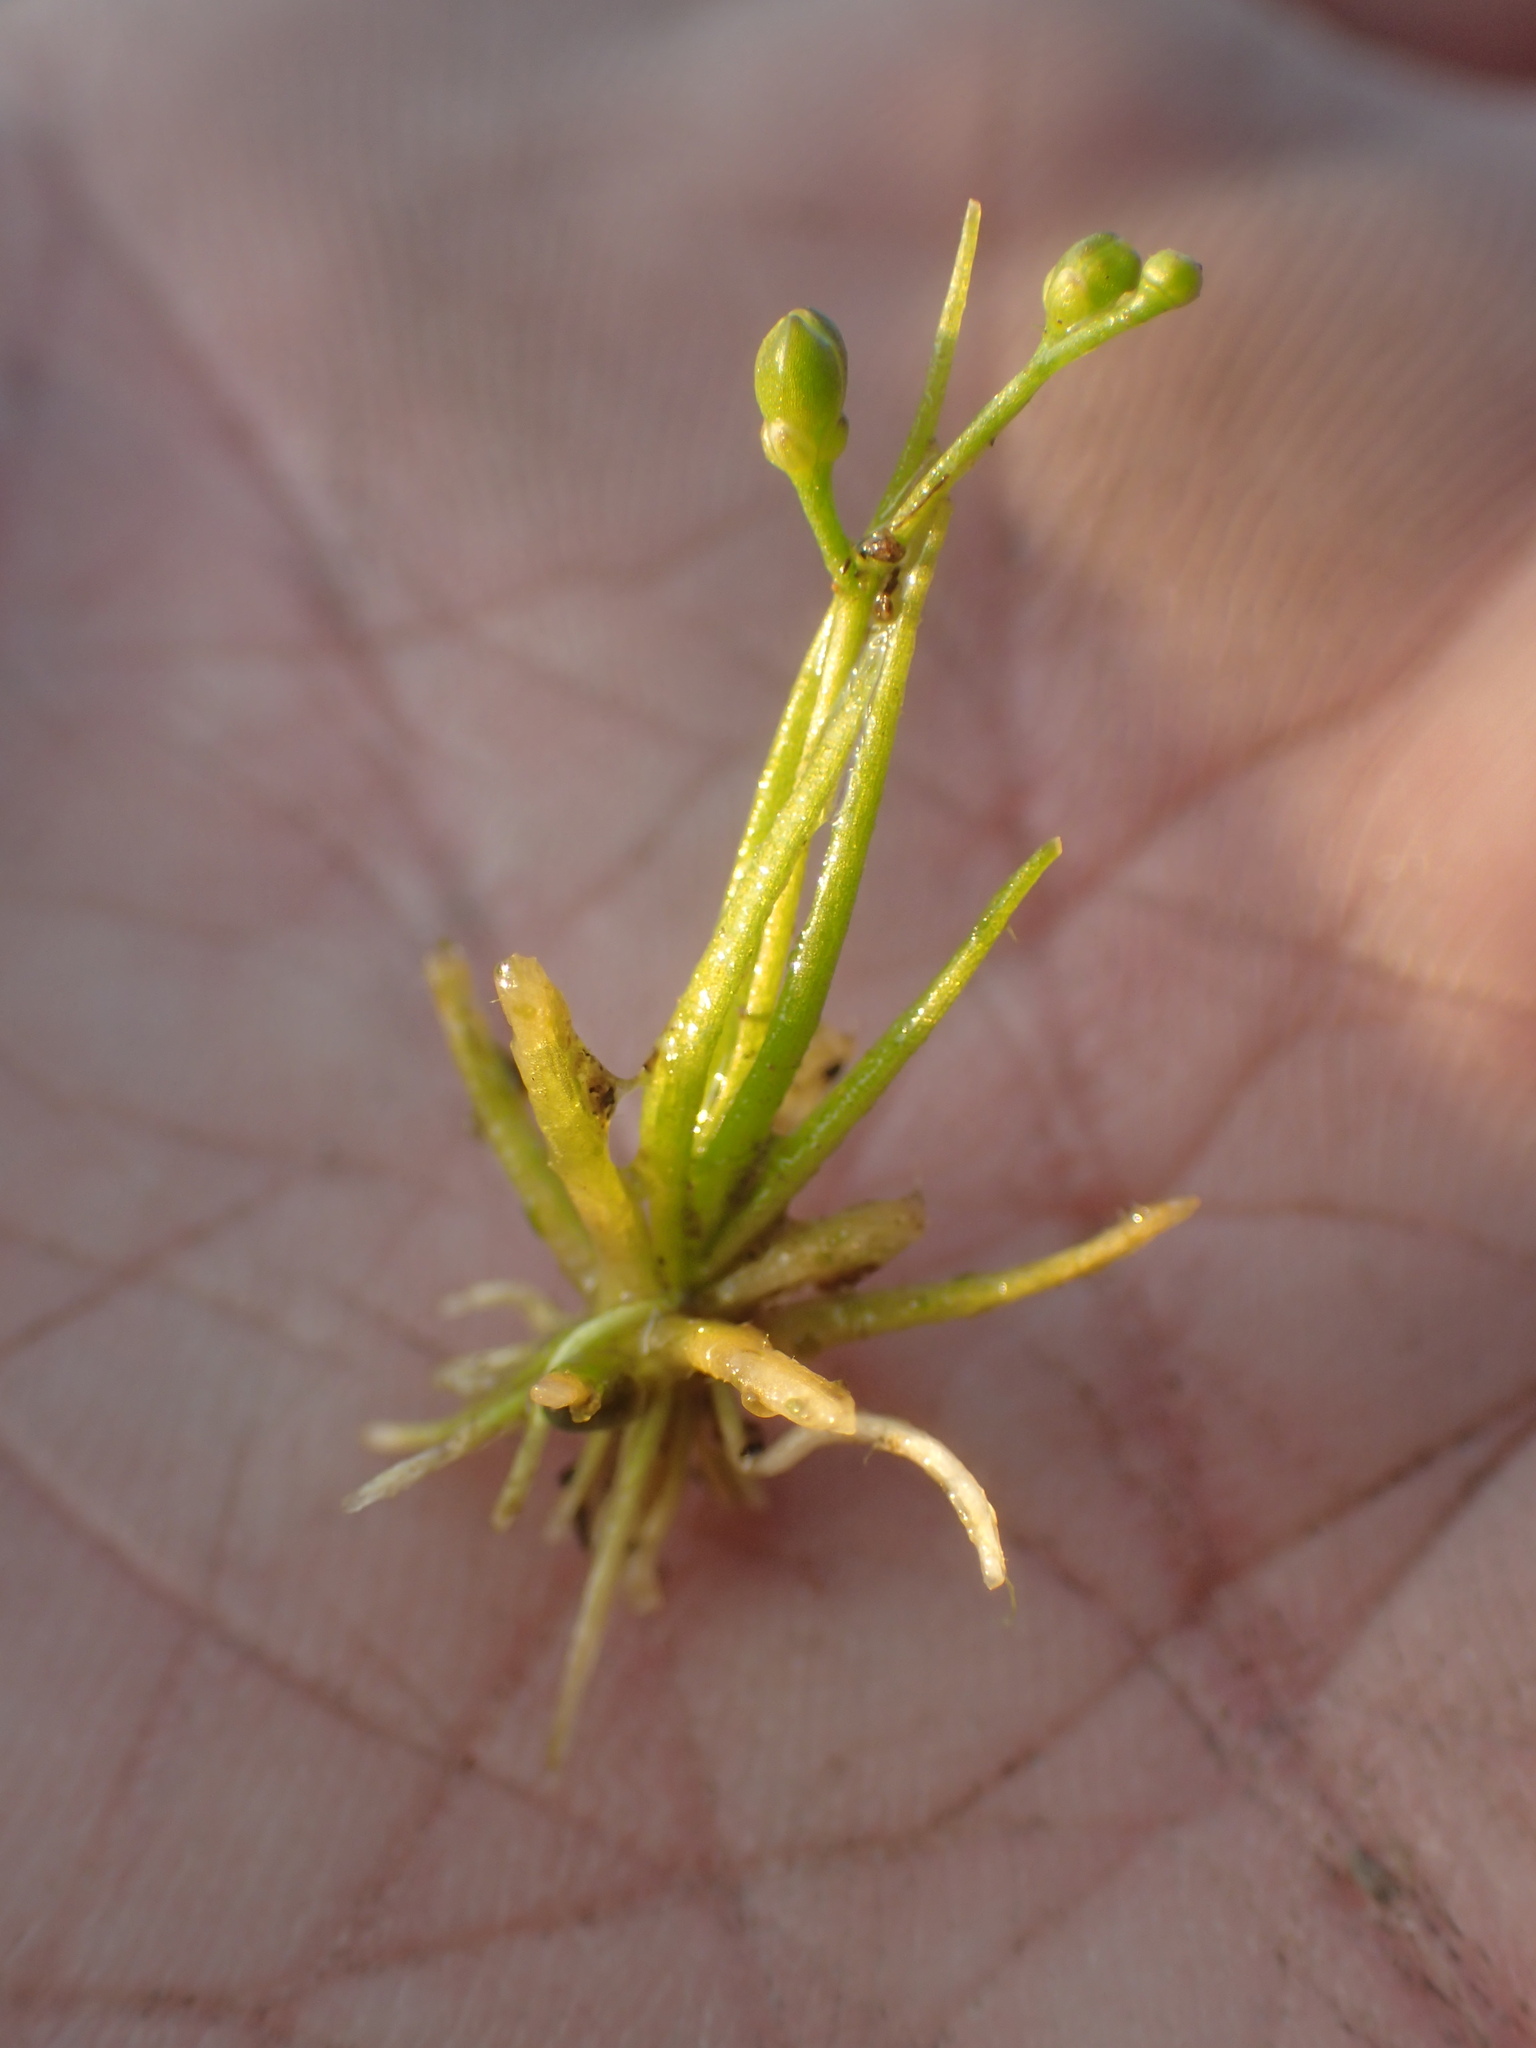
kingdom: Plantae
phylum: Tracheophyta
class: Magnoliopsida
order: Brassicales
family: Brassicaceae
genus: Subularia
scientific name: Subularia aquatica
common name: Awlwort
